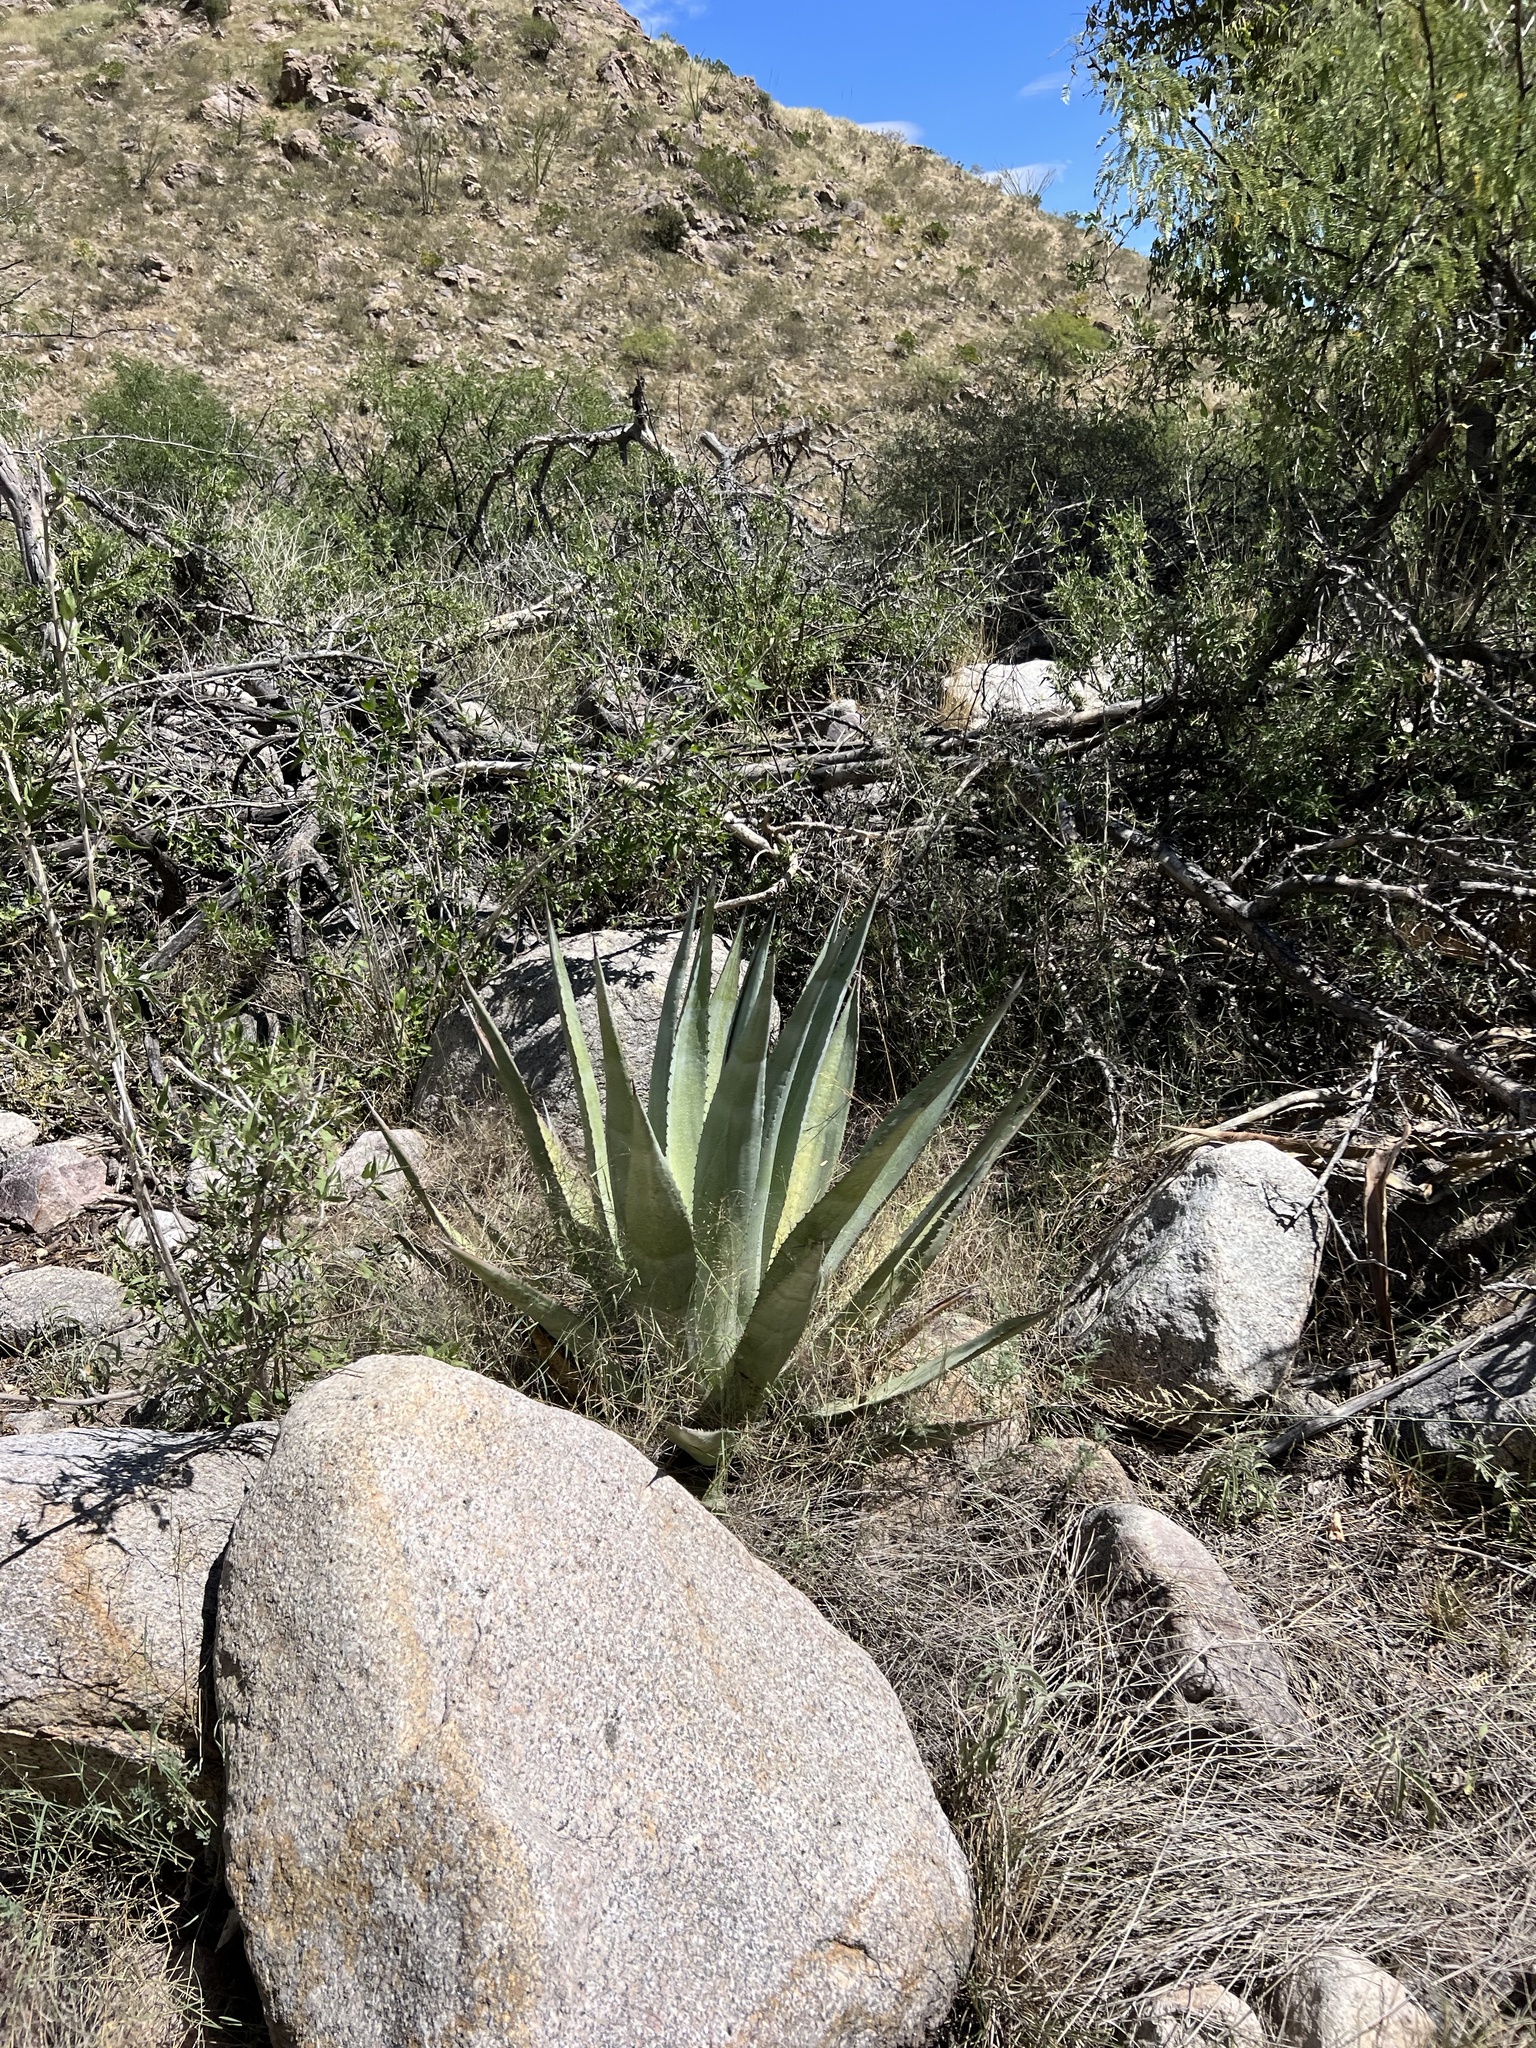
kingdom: Plantae
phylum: Tracheophyta
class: Liliopsida
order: Asparagales
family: Asparagaceae
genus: Agave
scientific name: Agave palmeri
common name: Palmer agave
